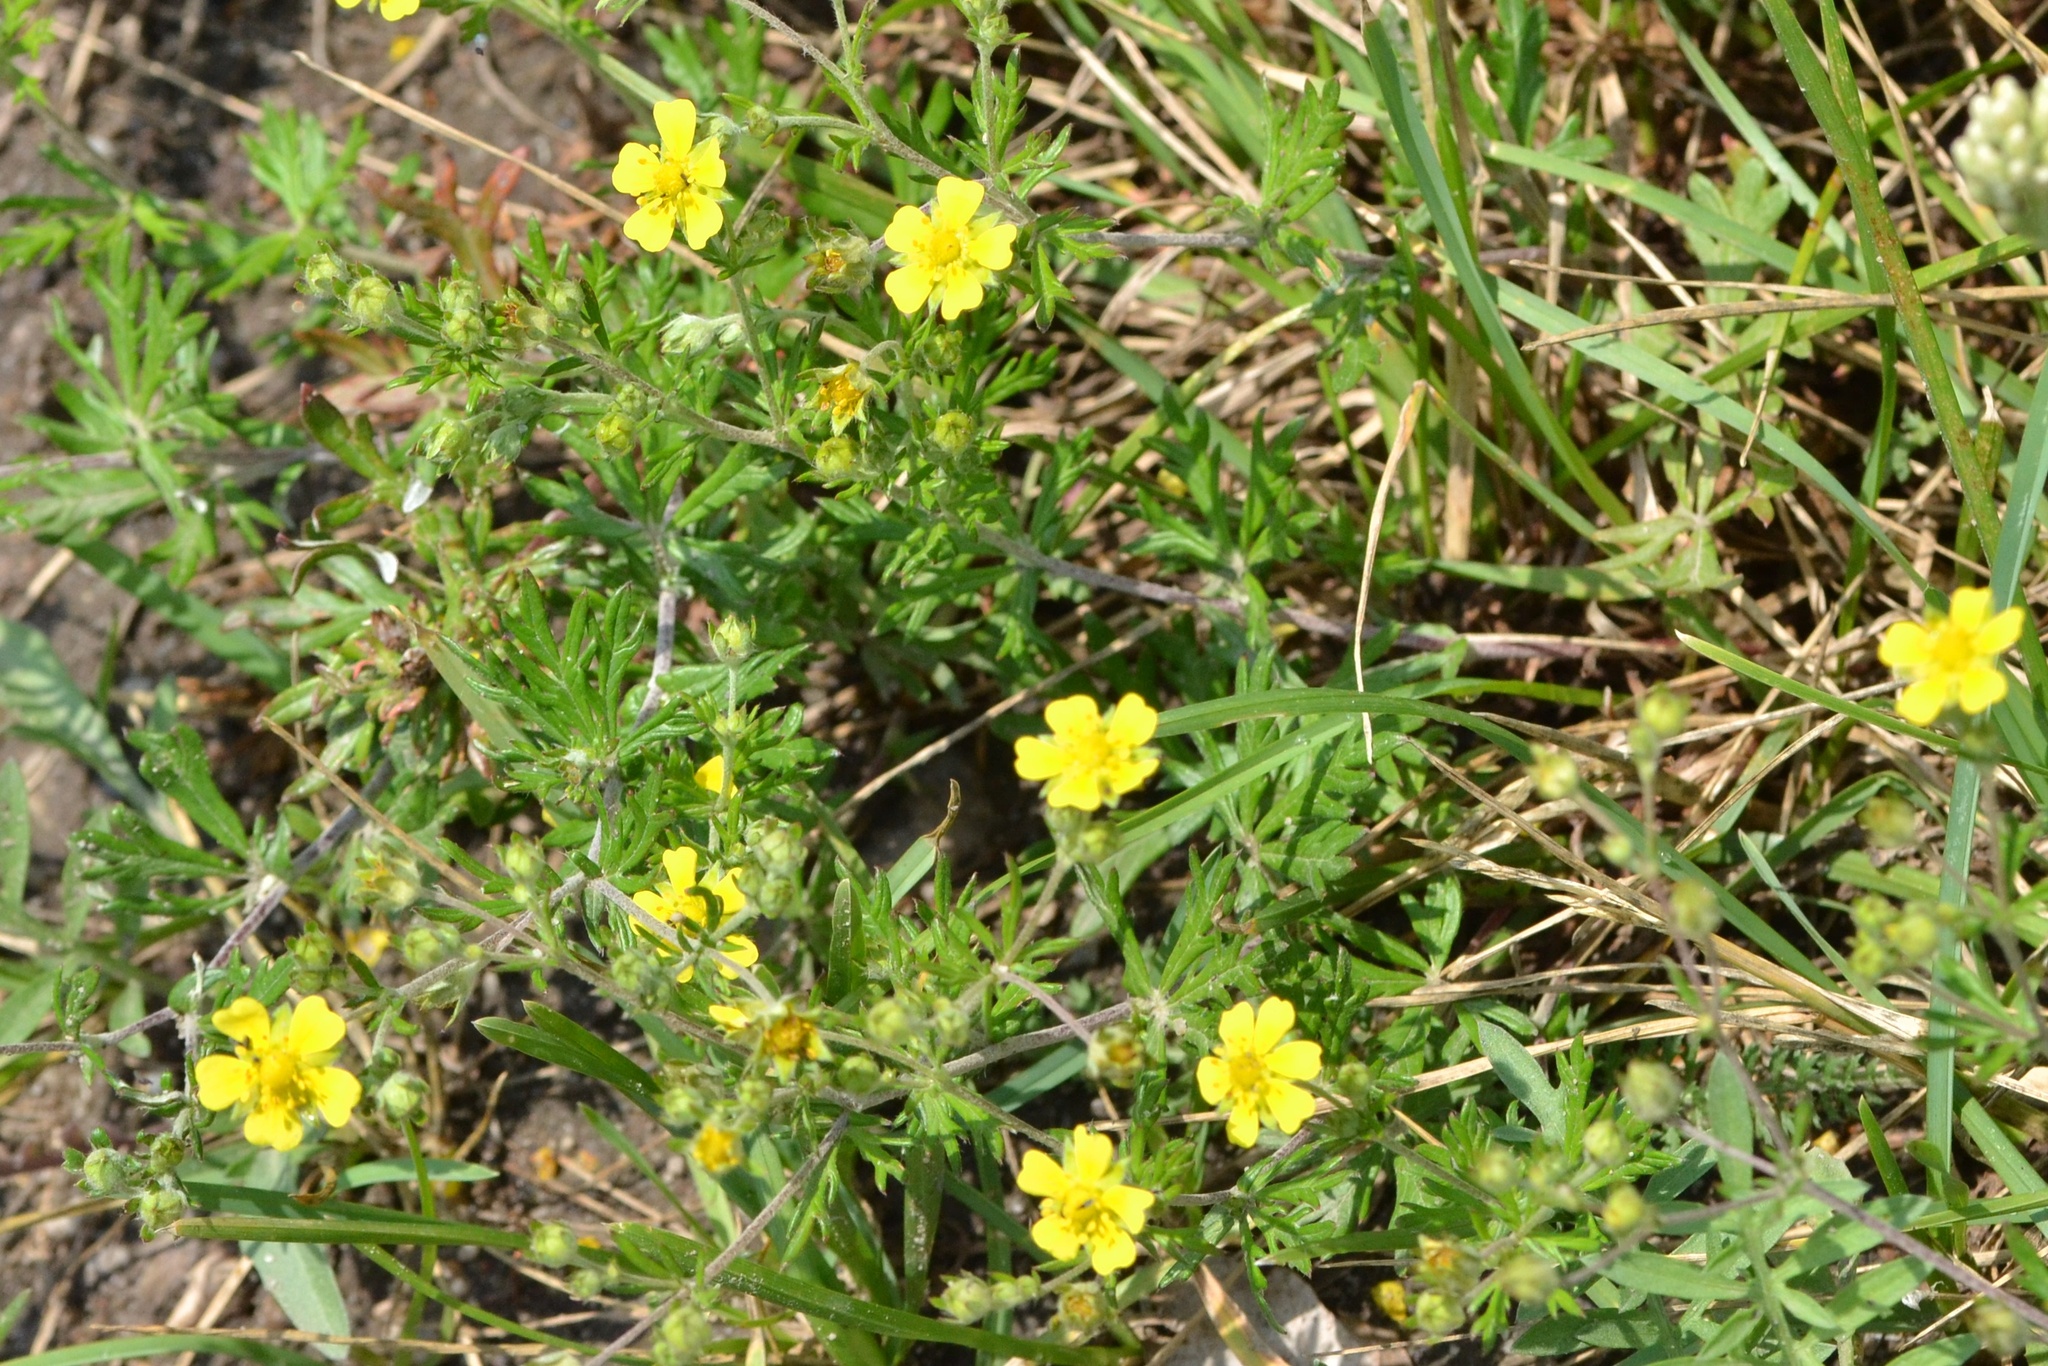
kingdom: Plantae
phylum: Tracheophyta
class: Magnoliopsida
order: Rosales
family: Rosaceae
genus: Potentilla
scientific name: Potentilla argentea
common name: Hoary cinquefoil
